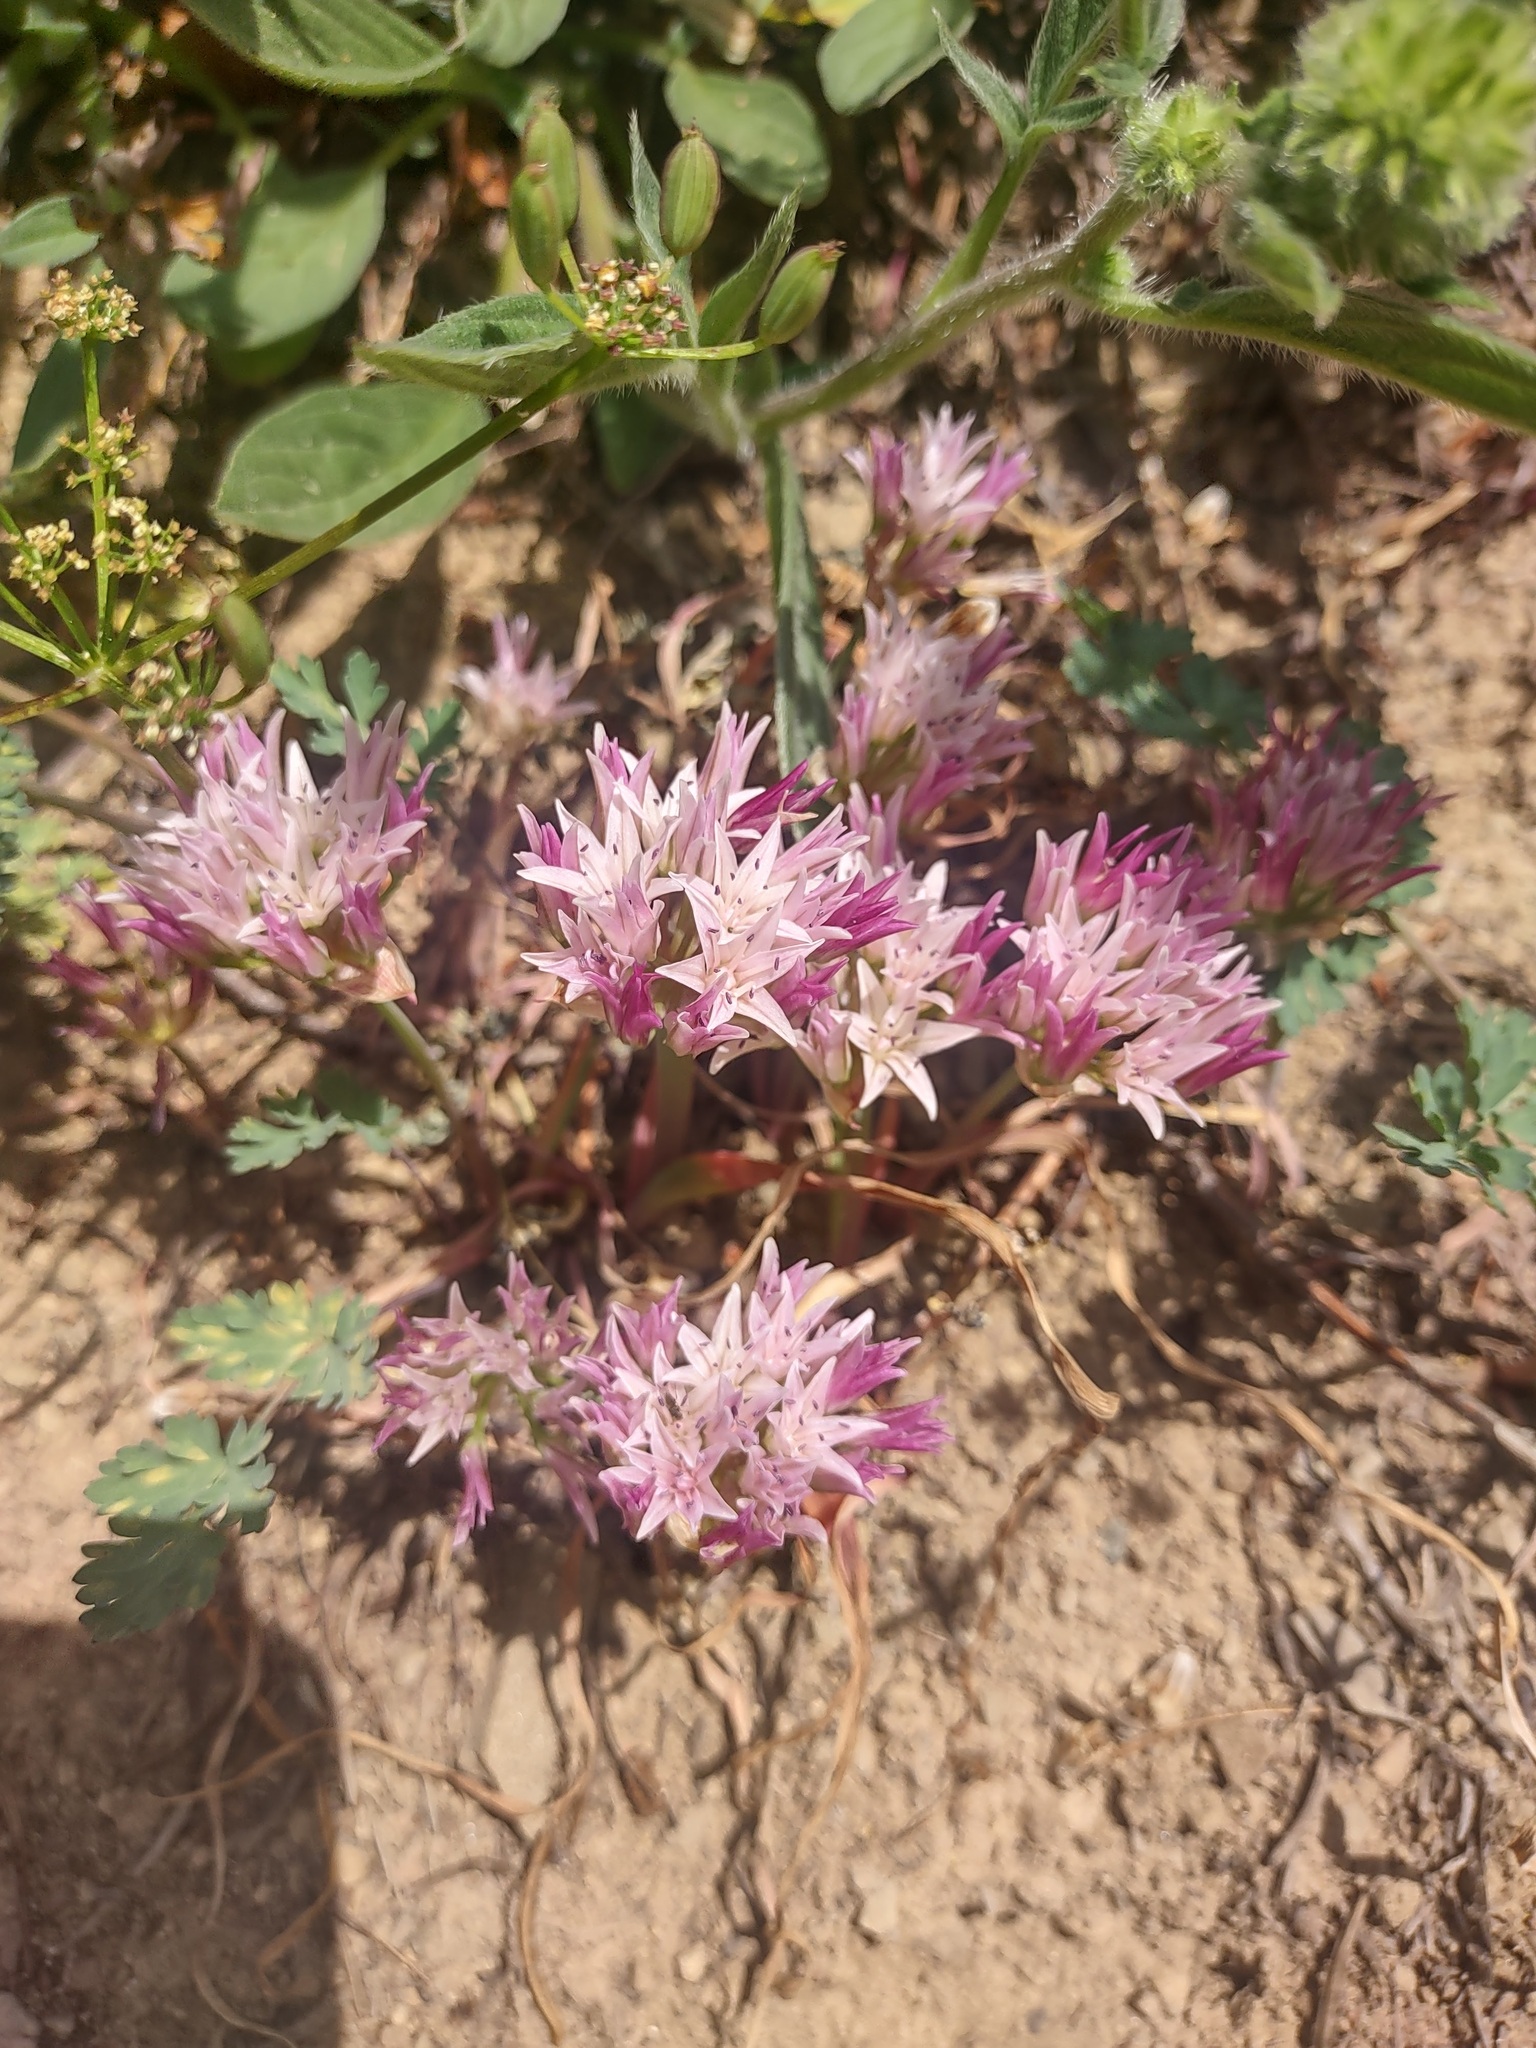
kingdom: Plantae
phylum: Tracheophyta
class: Liliopsida
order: Asparagales
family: Amaryllidaceae
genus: Allium
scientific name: Allium crenulatum
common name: Olympic onion
